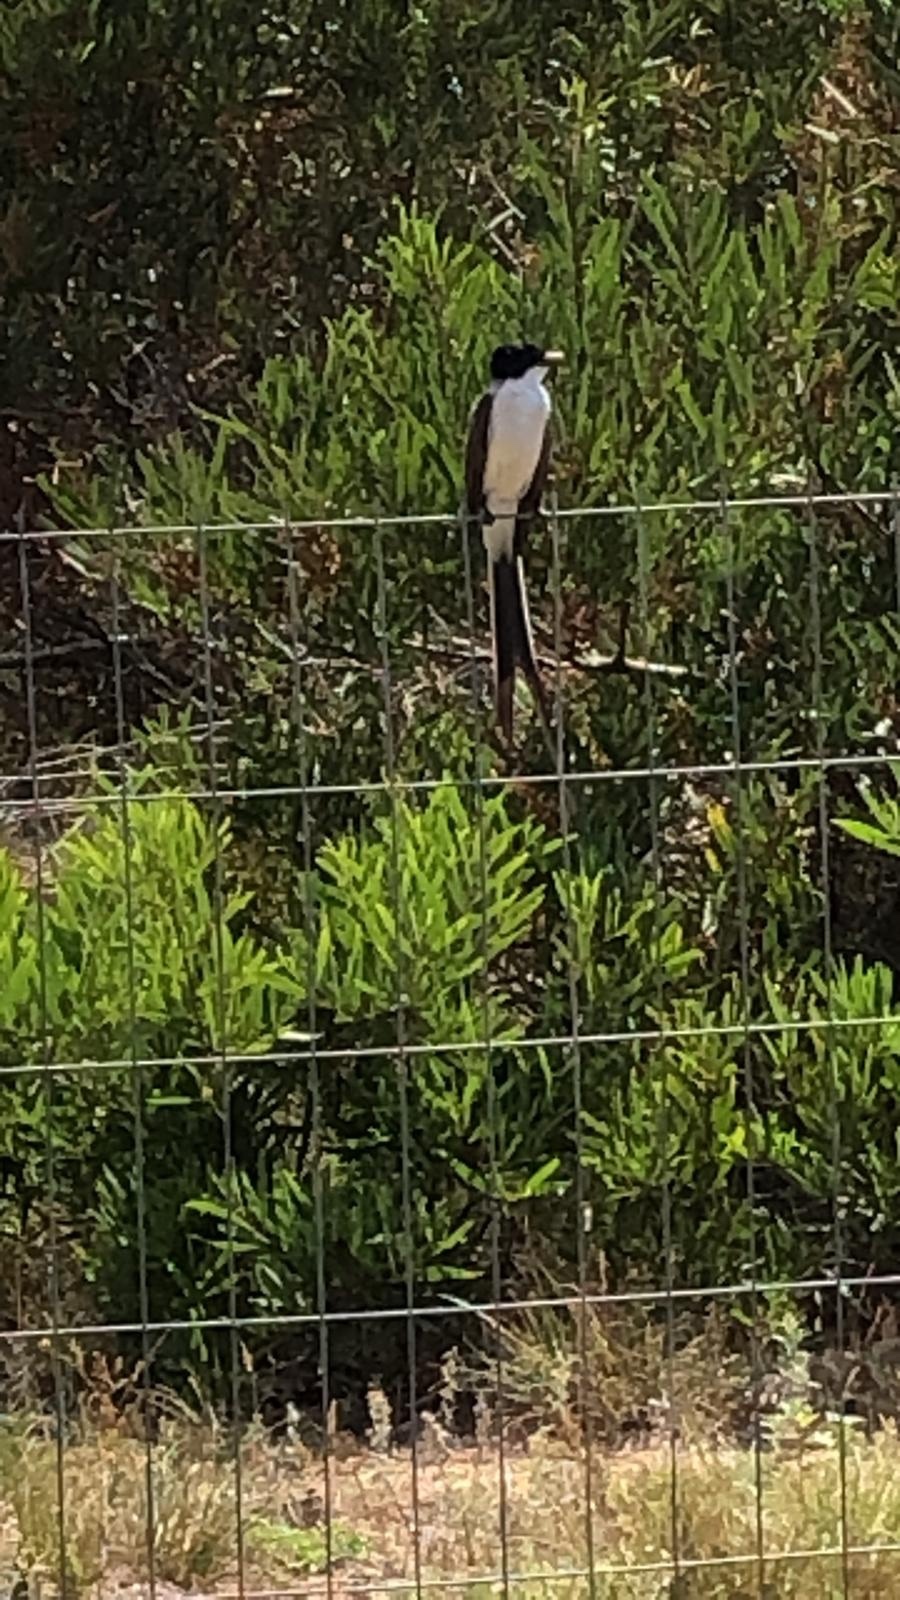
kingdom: Animalia
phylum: Chordata
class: Aves
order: Passeriformes
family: Tyrannidae
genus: Tyrannus
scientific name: Tyrannus savana
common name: Fork-tailed flycatcher
